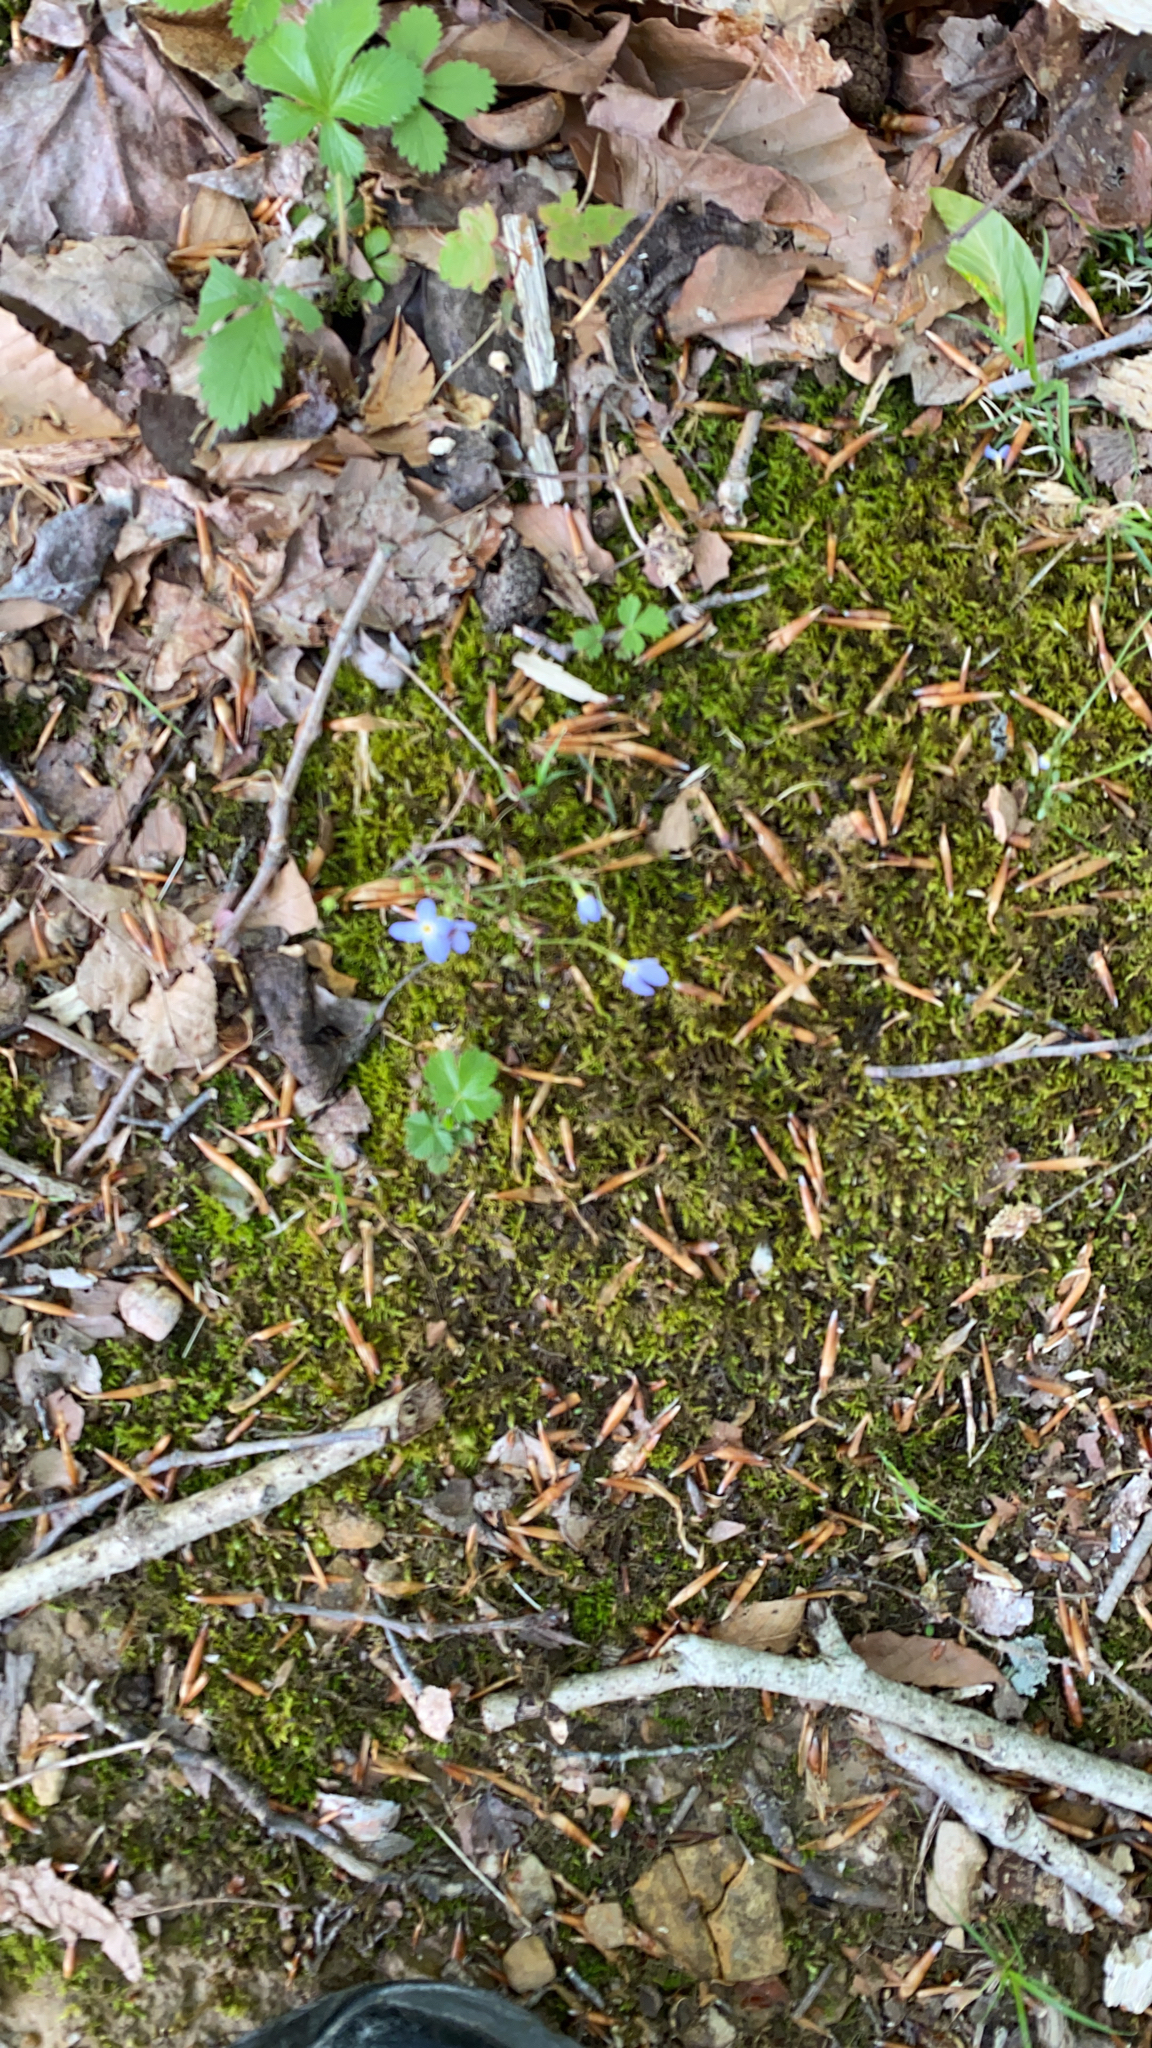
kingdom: Plantae
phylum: Tracheophyta
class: Magnoliopsida
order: Gentianales
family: Rubiaceae
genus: Houstonia
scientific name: Houstonia caerulea
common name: Bluets
